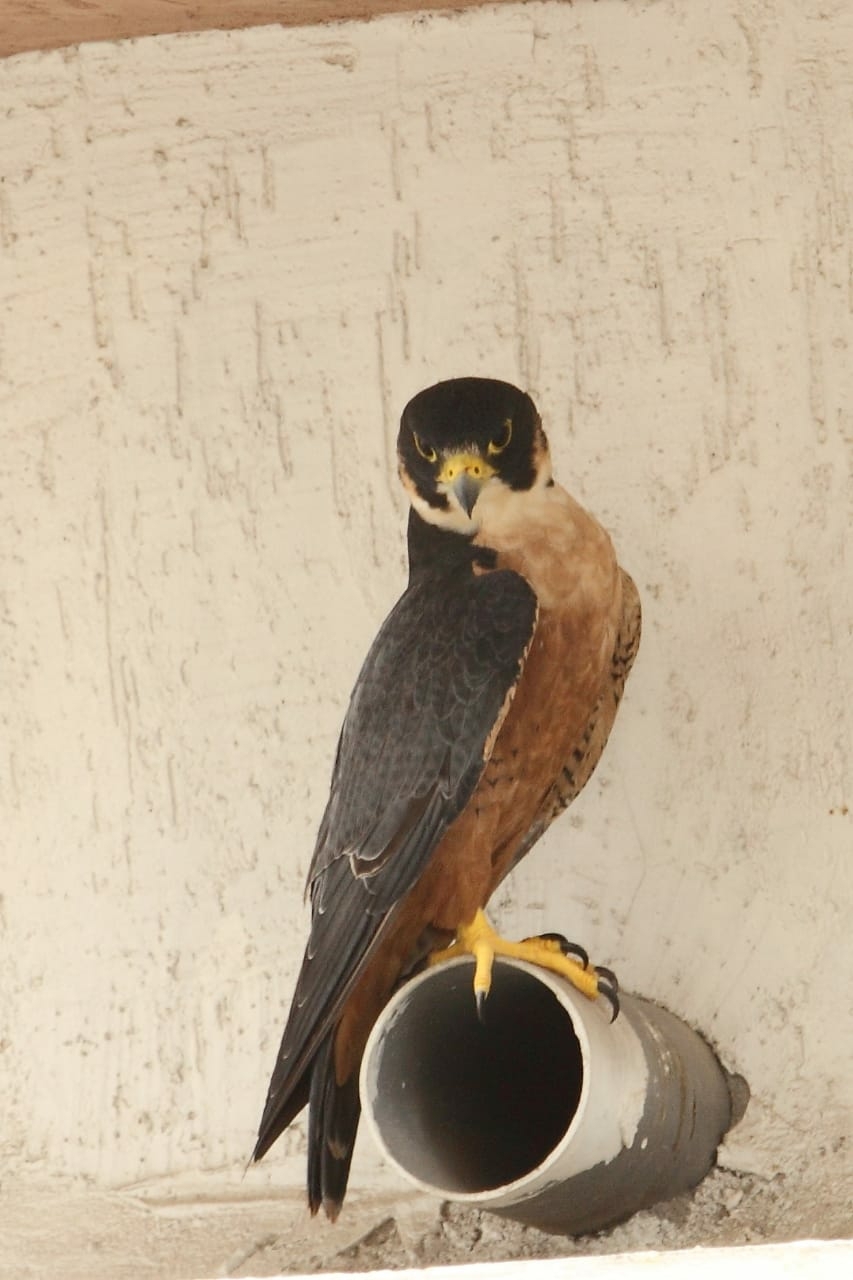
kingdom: Animalia
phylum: Chordata
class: Aves
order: Falconiformes
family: Falconidae
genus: Falco
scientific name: Falco peregrinus
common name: Peregrine falcon
